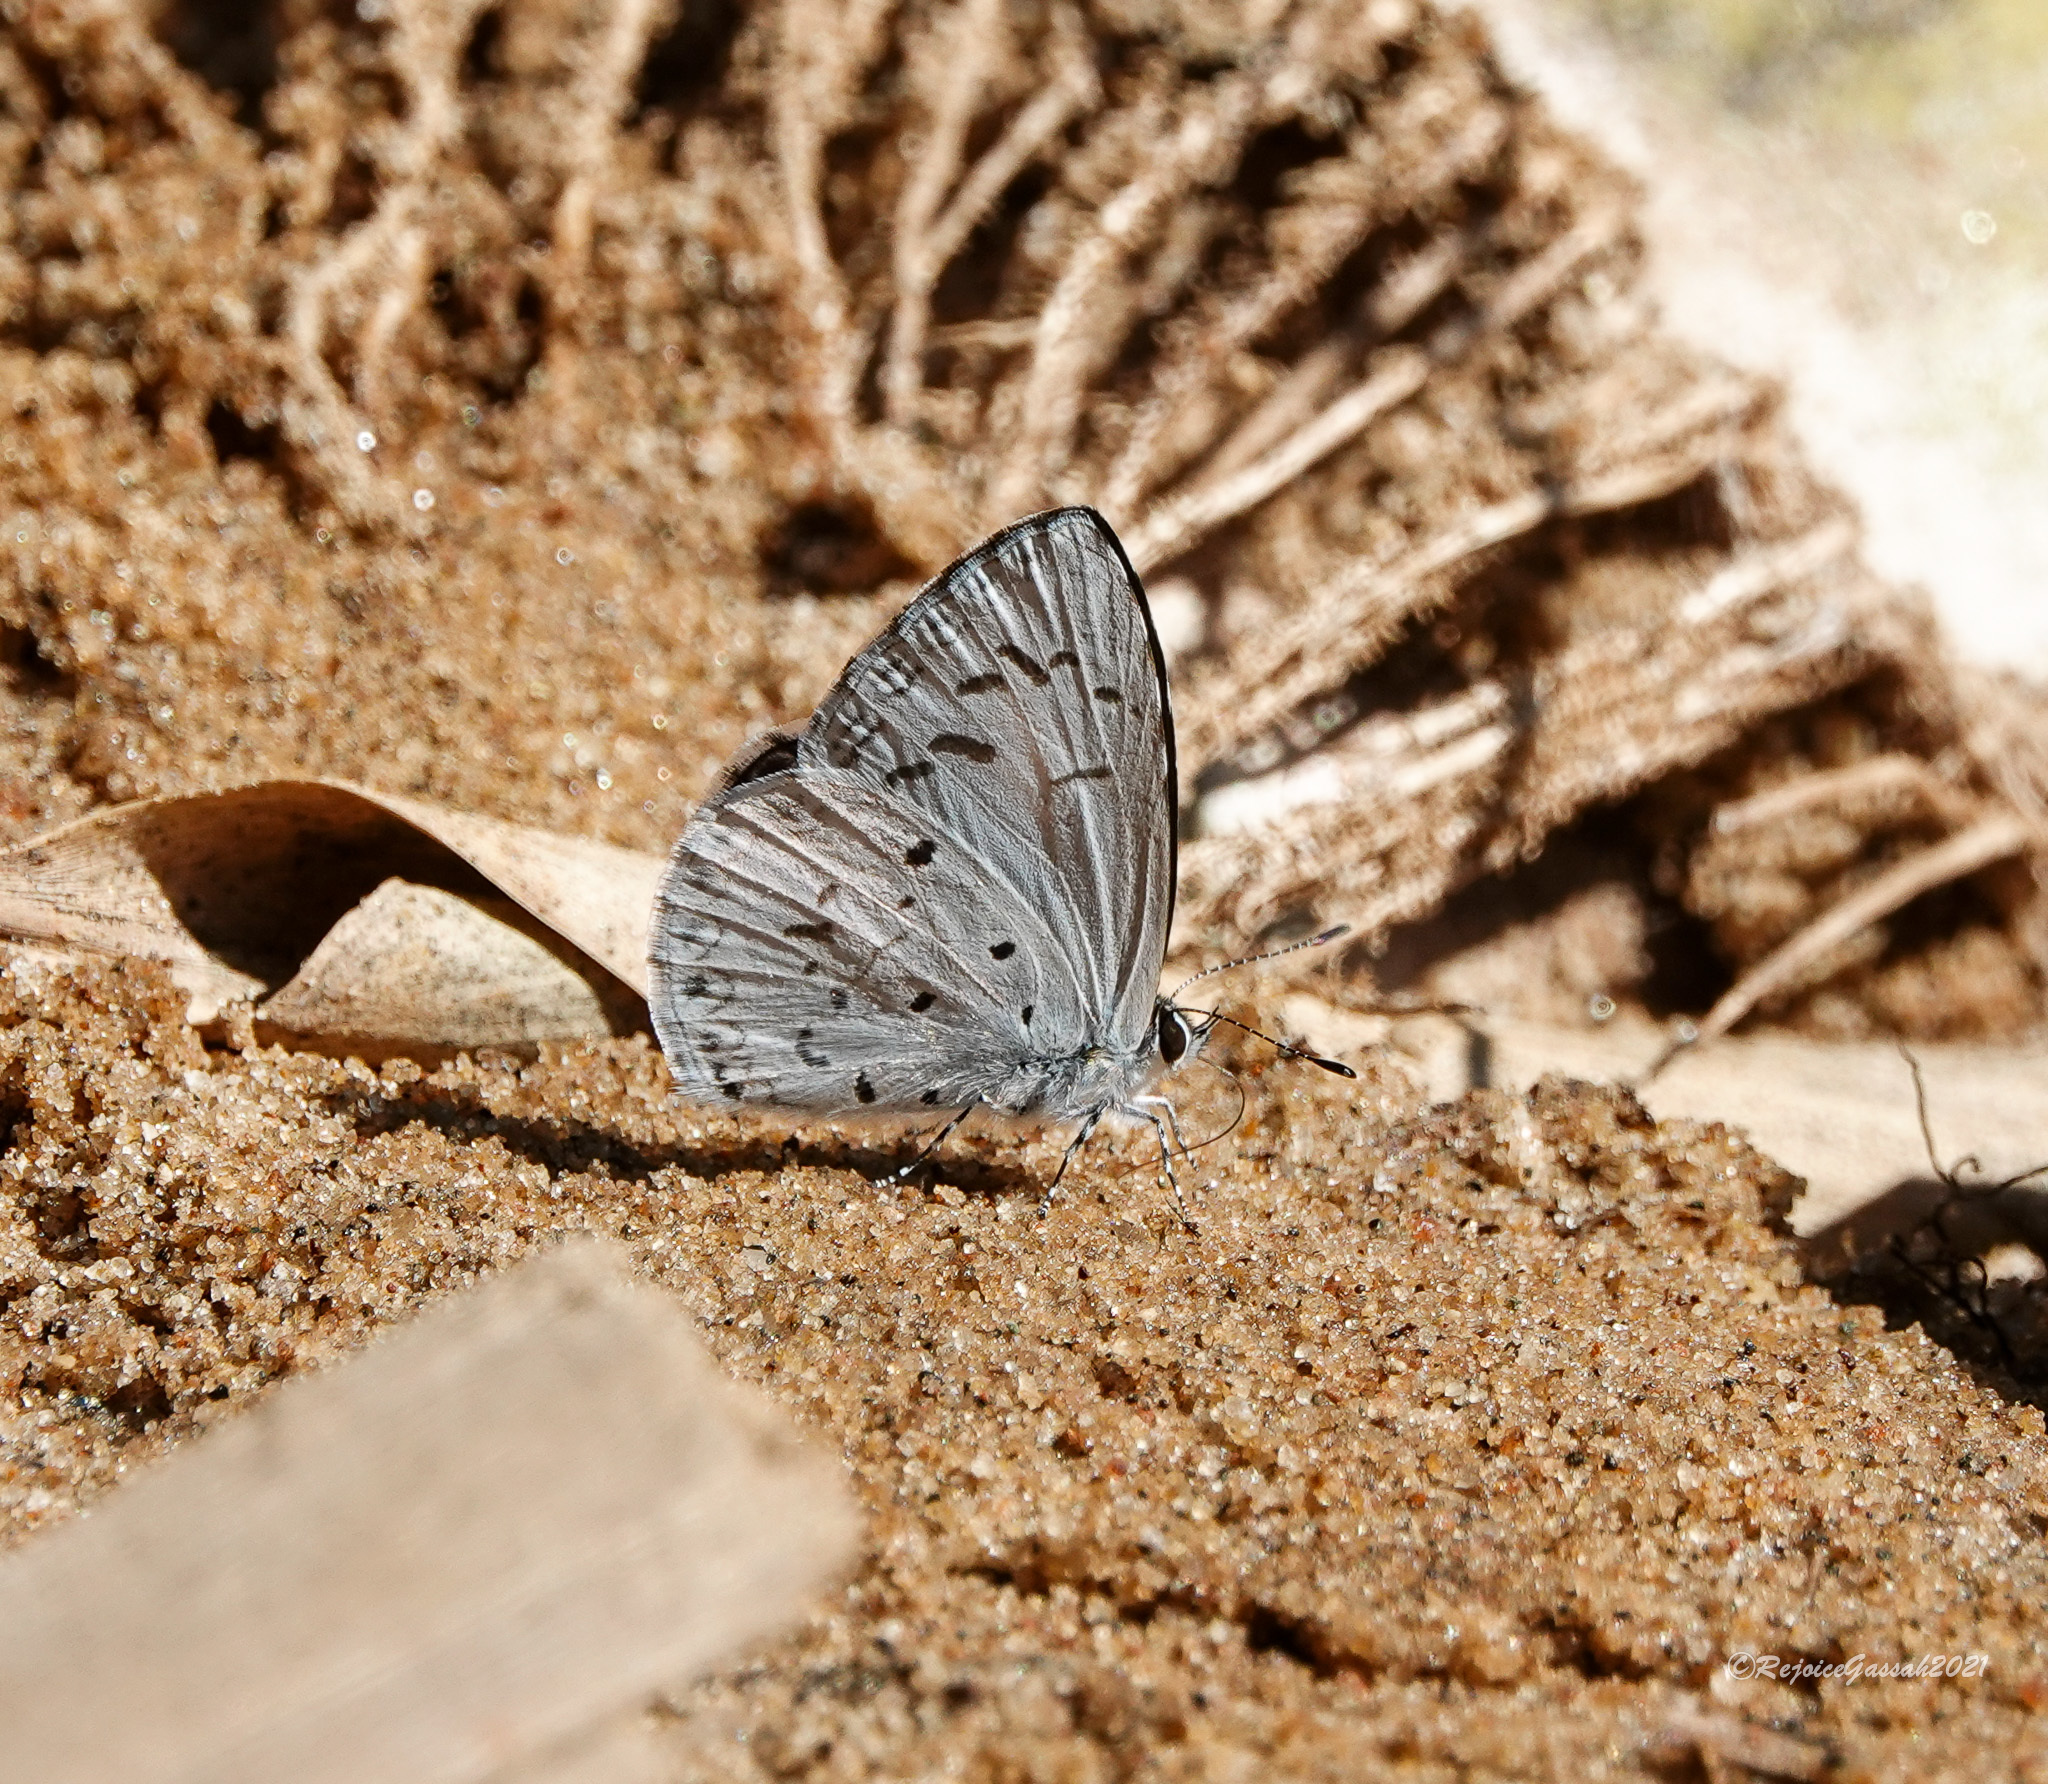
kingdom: Animalia
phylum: Arthropoda
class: Insecta
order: Lepidoptera
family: Lycaenidae
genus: Acytolepis
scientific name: Acytolepis puspa
